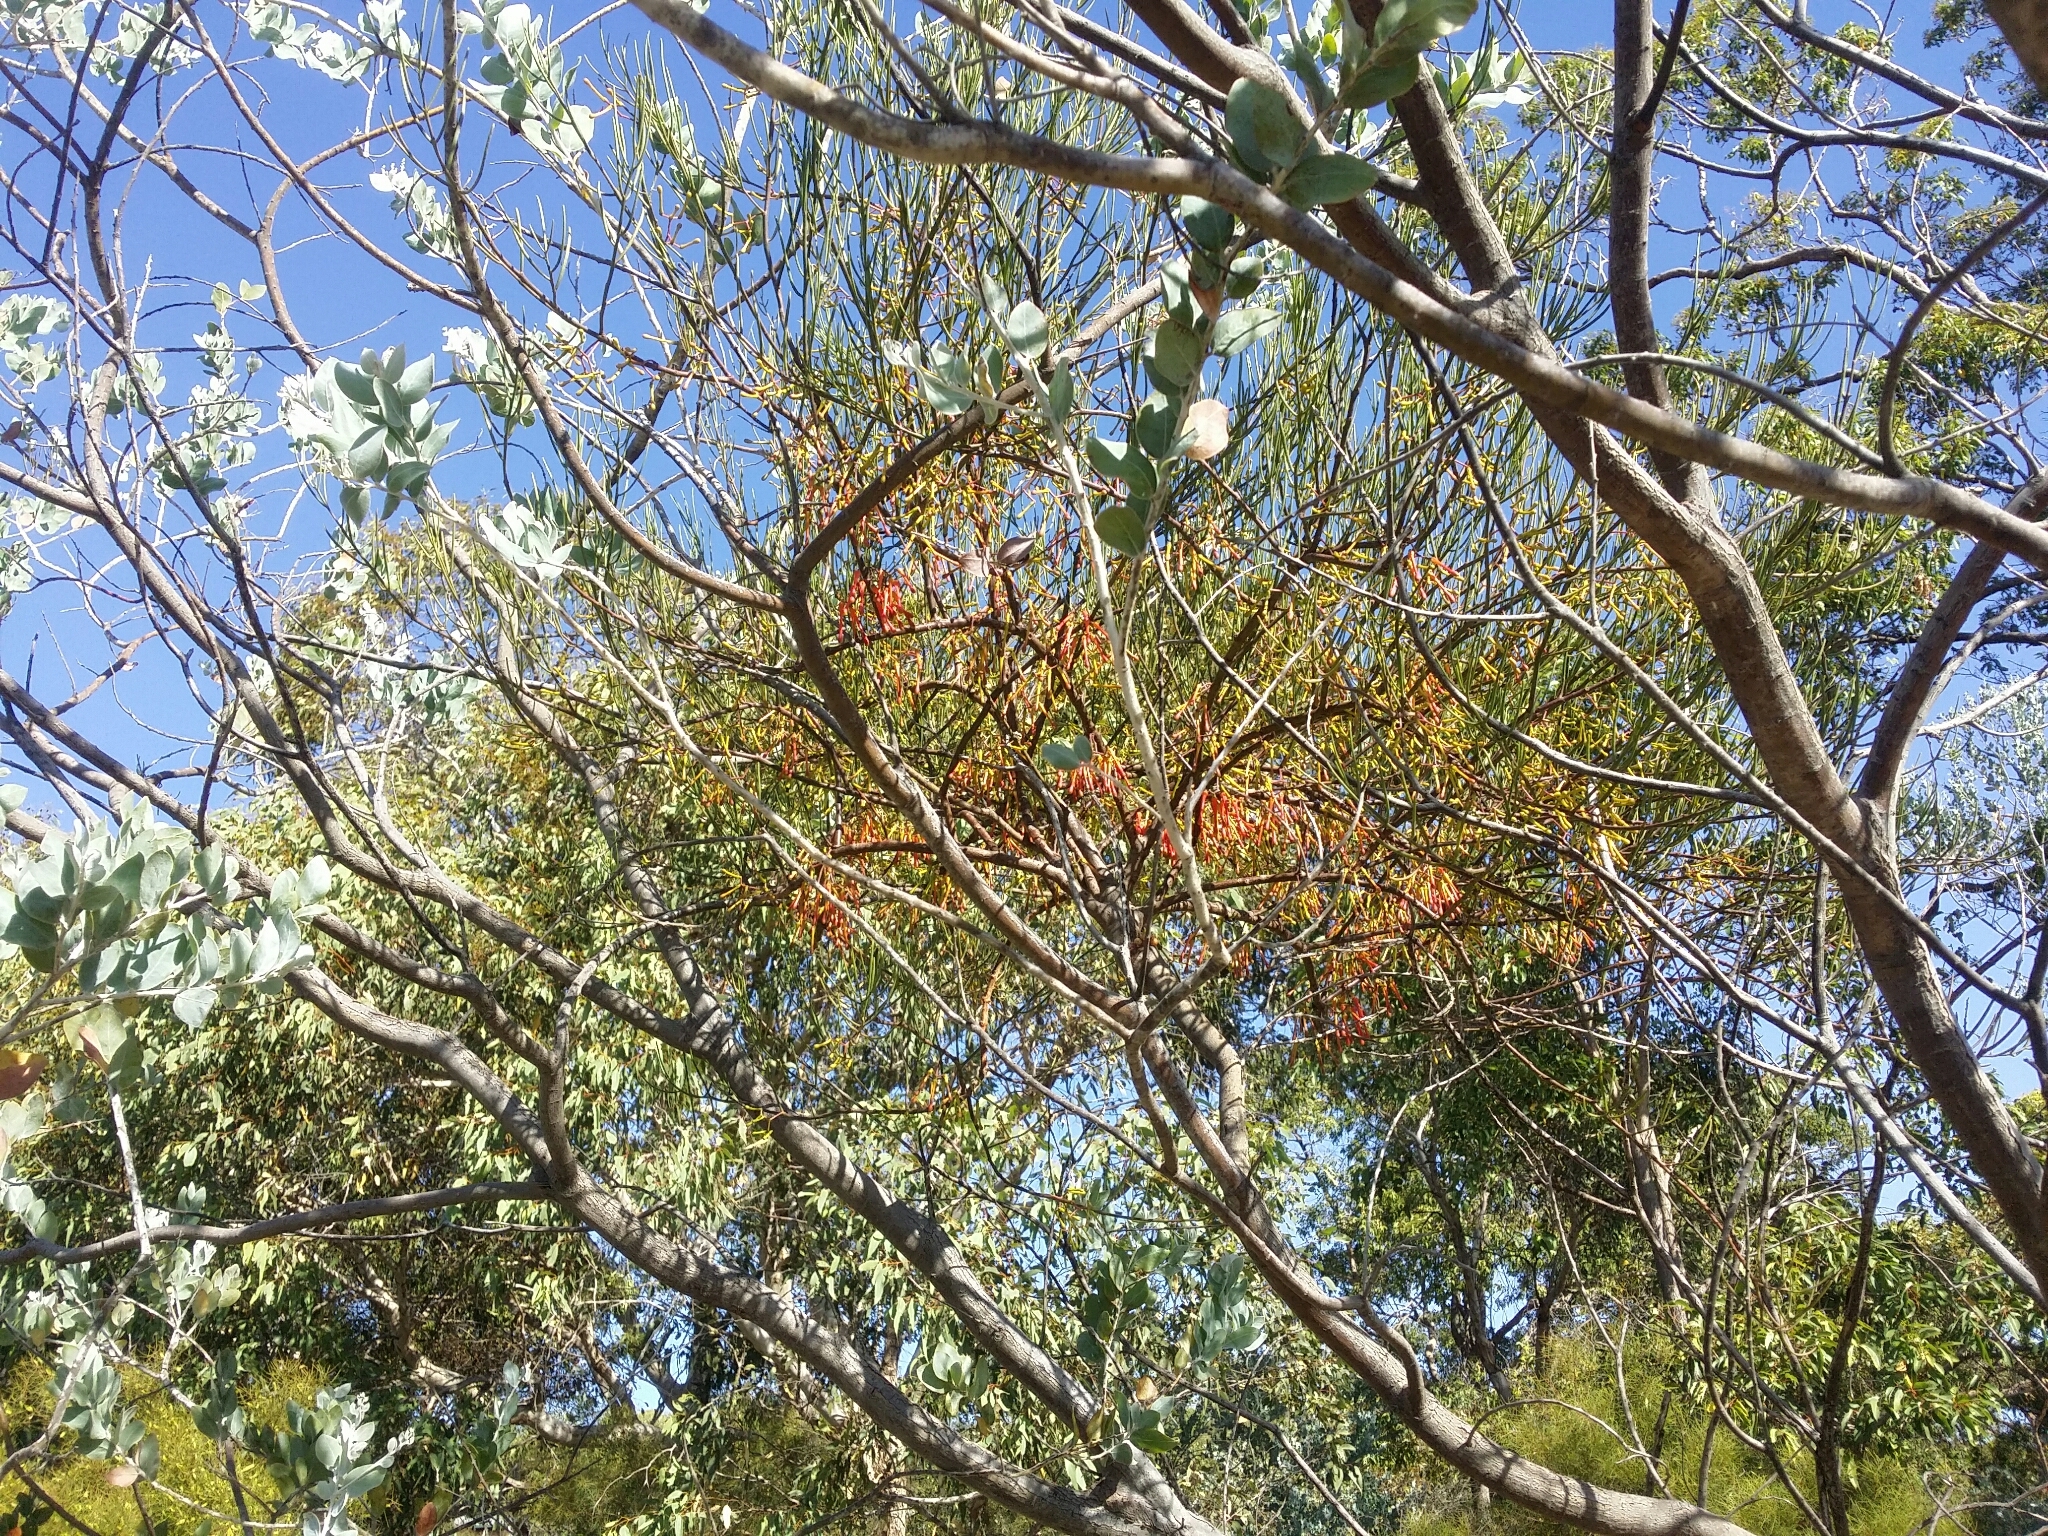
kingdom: Plantae
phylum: Tracheophyta
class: Magnoliopsida
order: Santalales
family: Loranthaceae
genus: Amyema
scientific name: Amyema preissii
